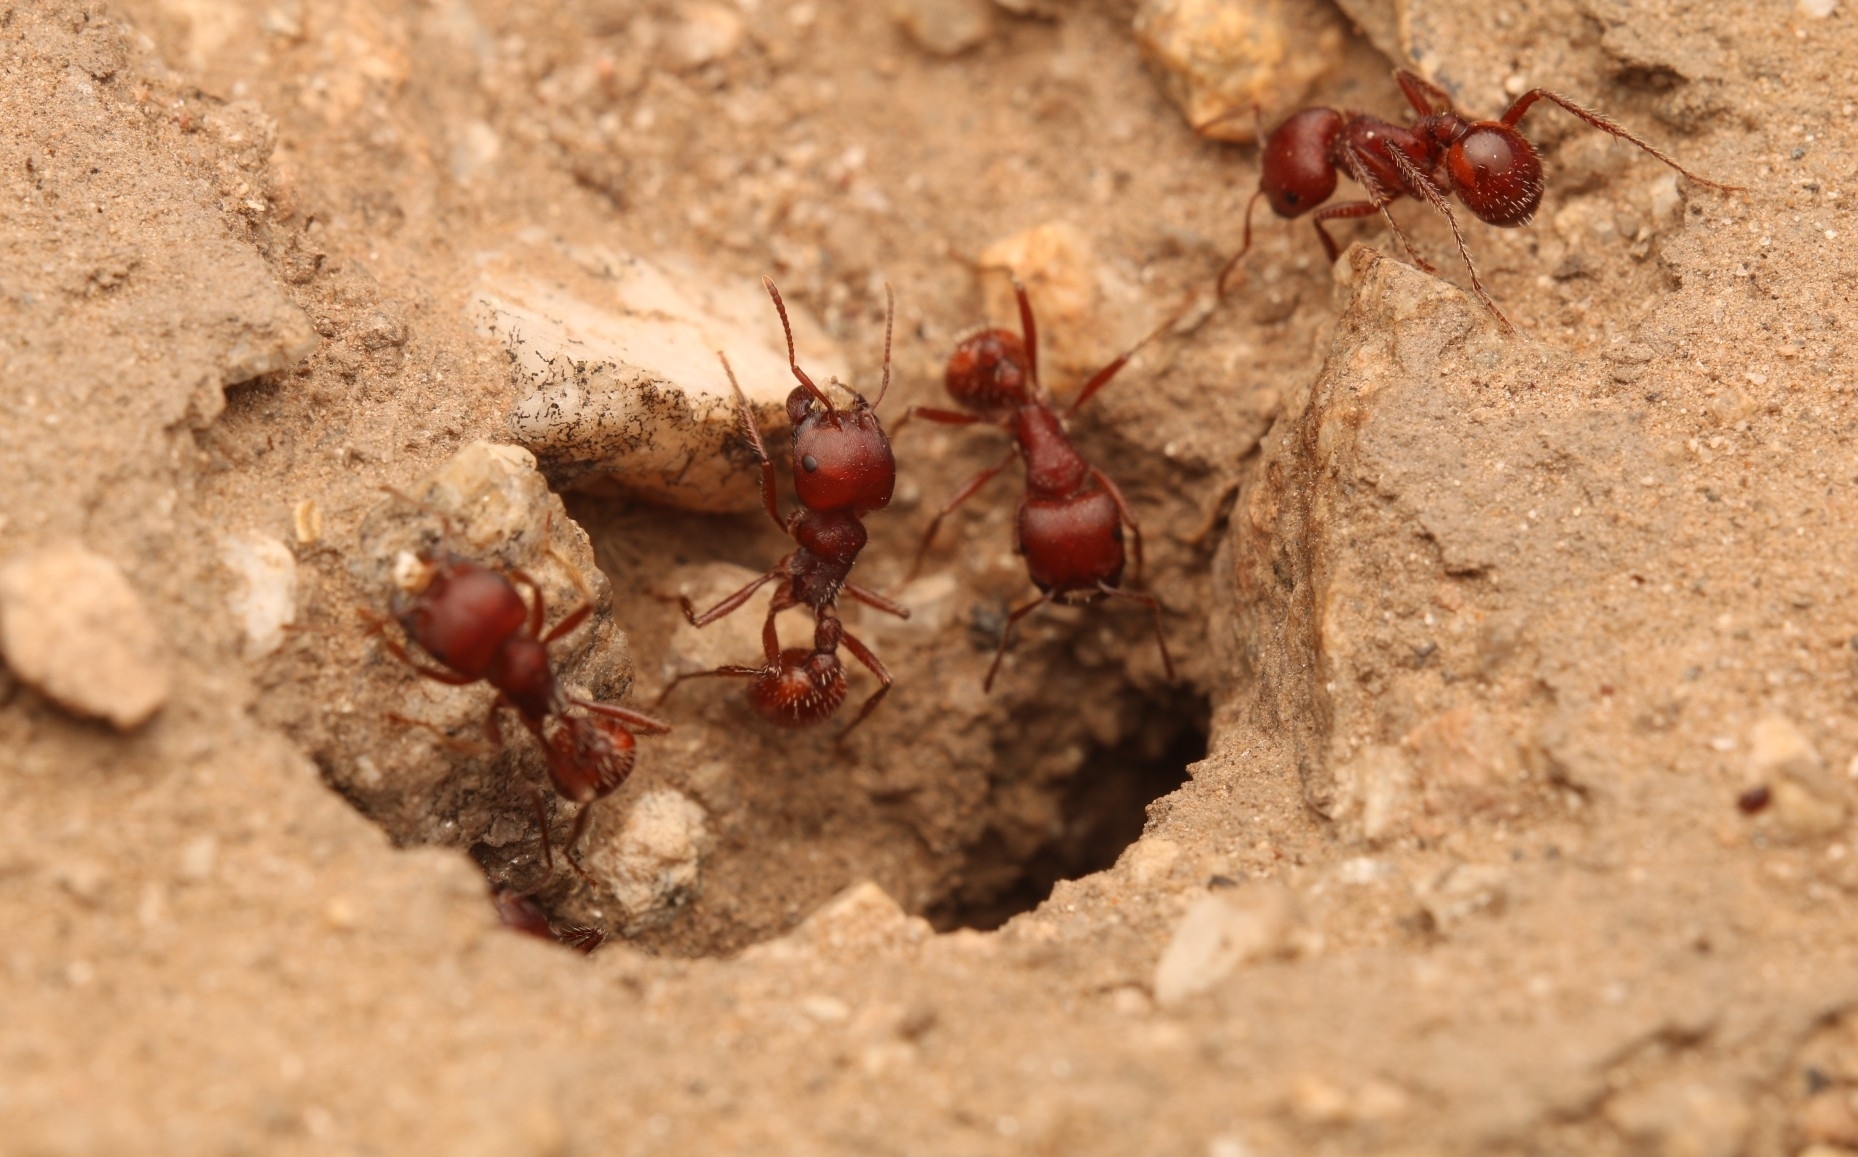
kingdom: Animalia
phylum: Arthropoda
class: Insecta
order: Hymenoptera
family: Formicidae
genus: Pogonomyrmex
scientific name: Pogonomyrmex barbatus
